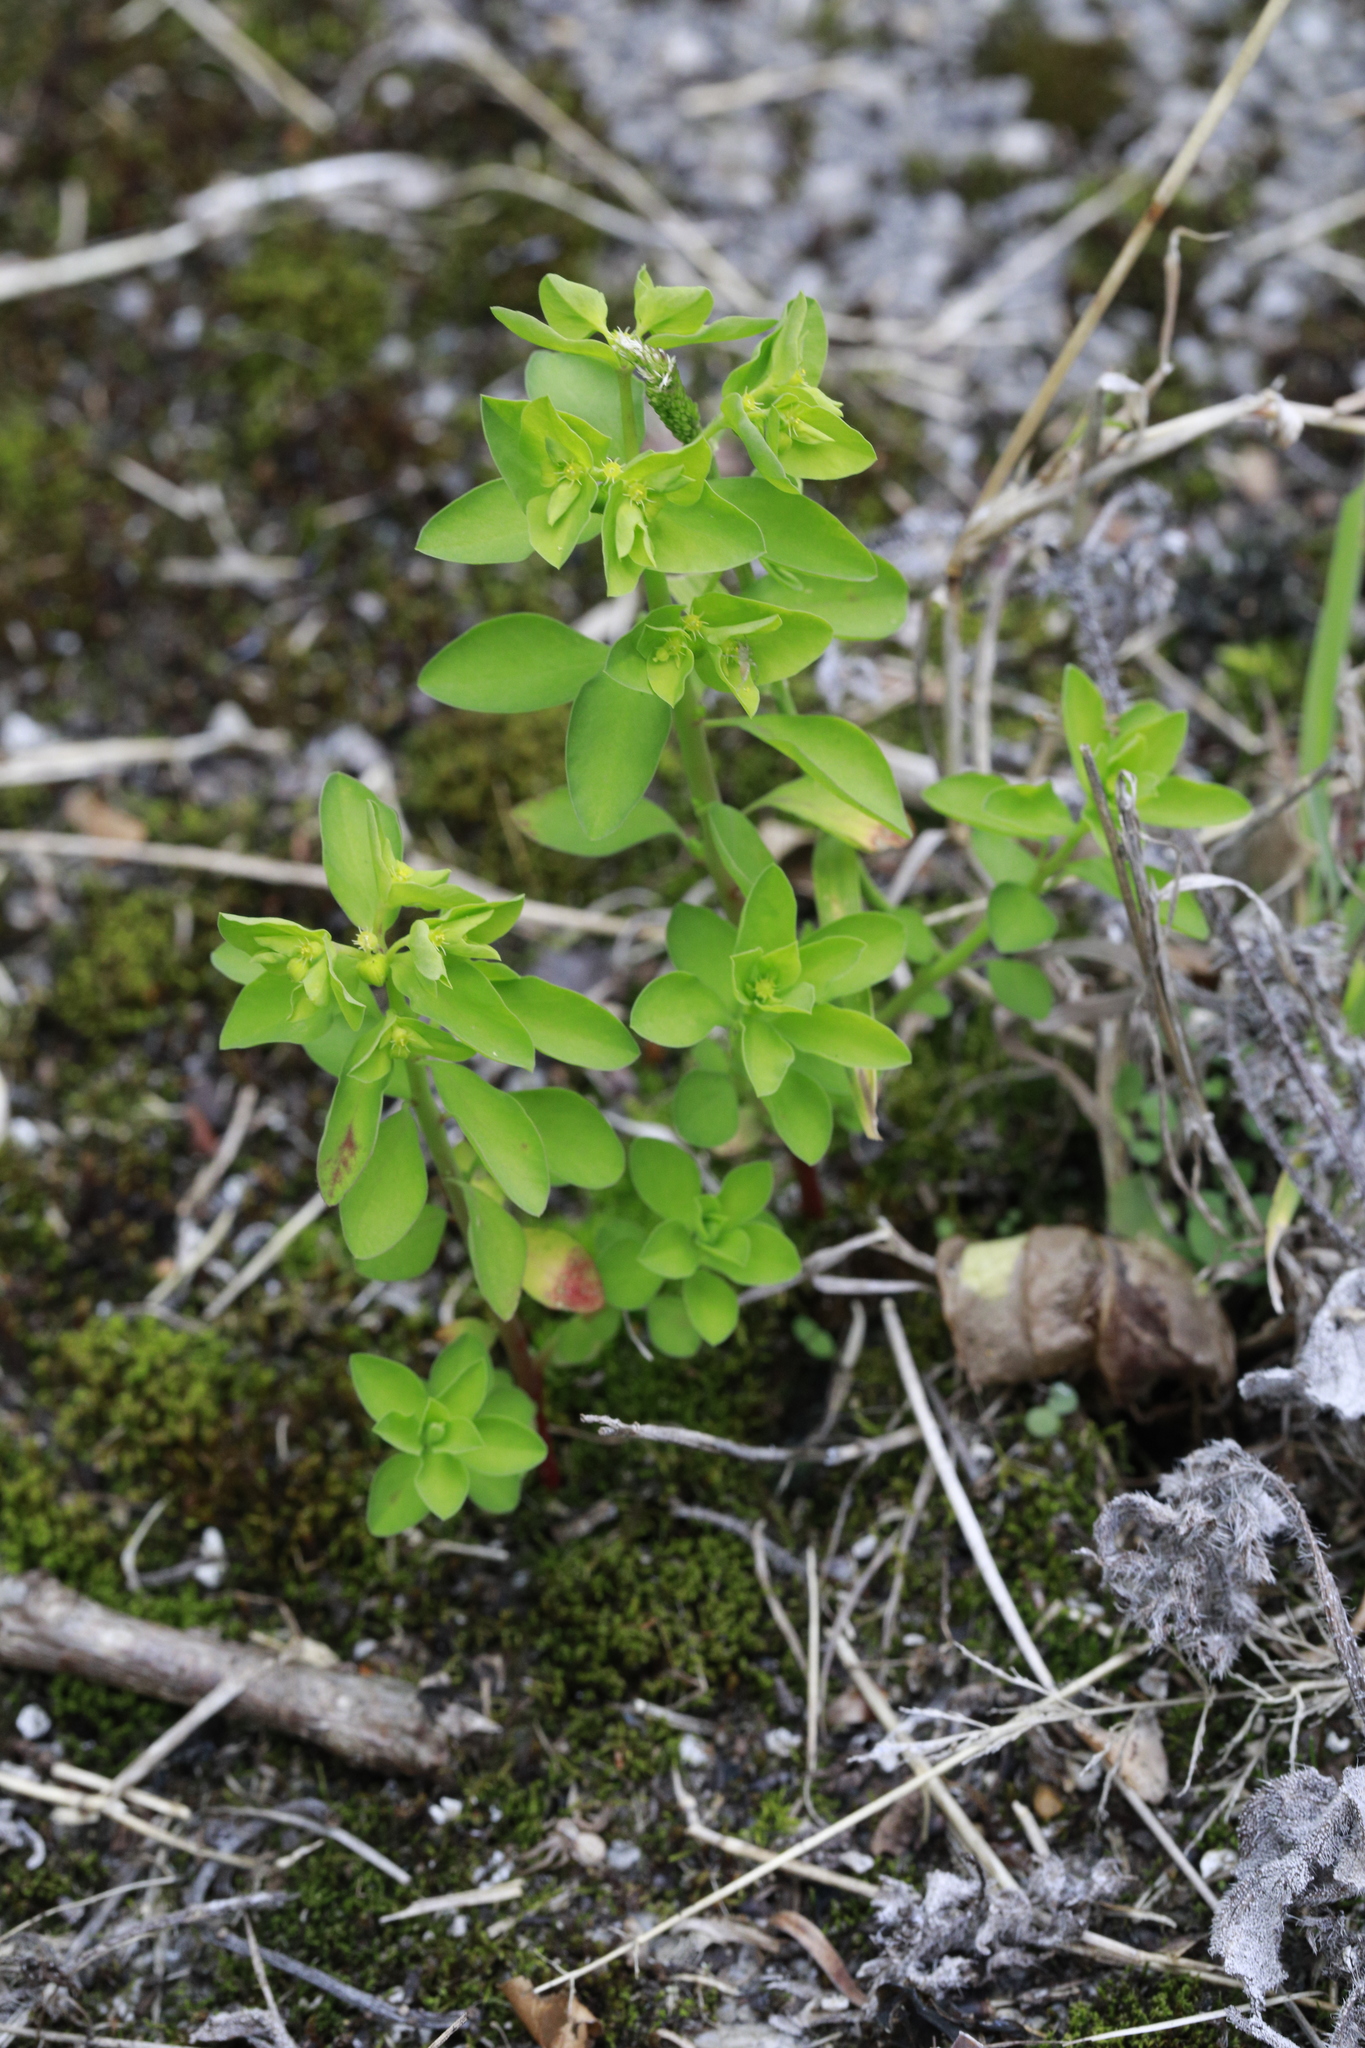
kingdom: Plantae
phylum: Tracheophyta
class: Magnoliopsida
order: Malpighiales
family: Euphorbiaceae
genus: Euphorbia
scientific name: Euphorbia peplus
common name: Petty spurge
